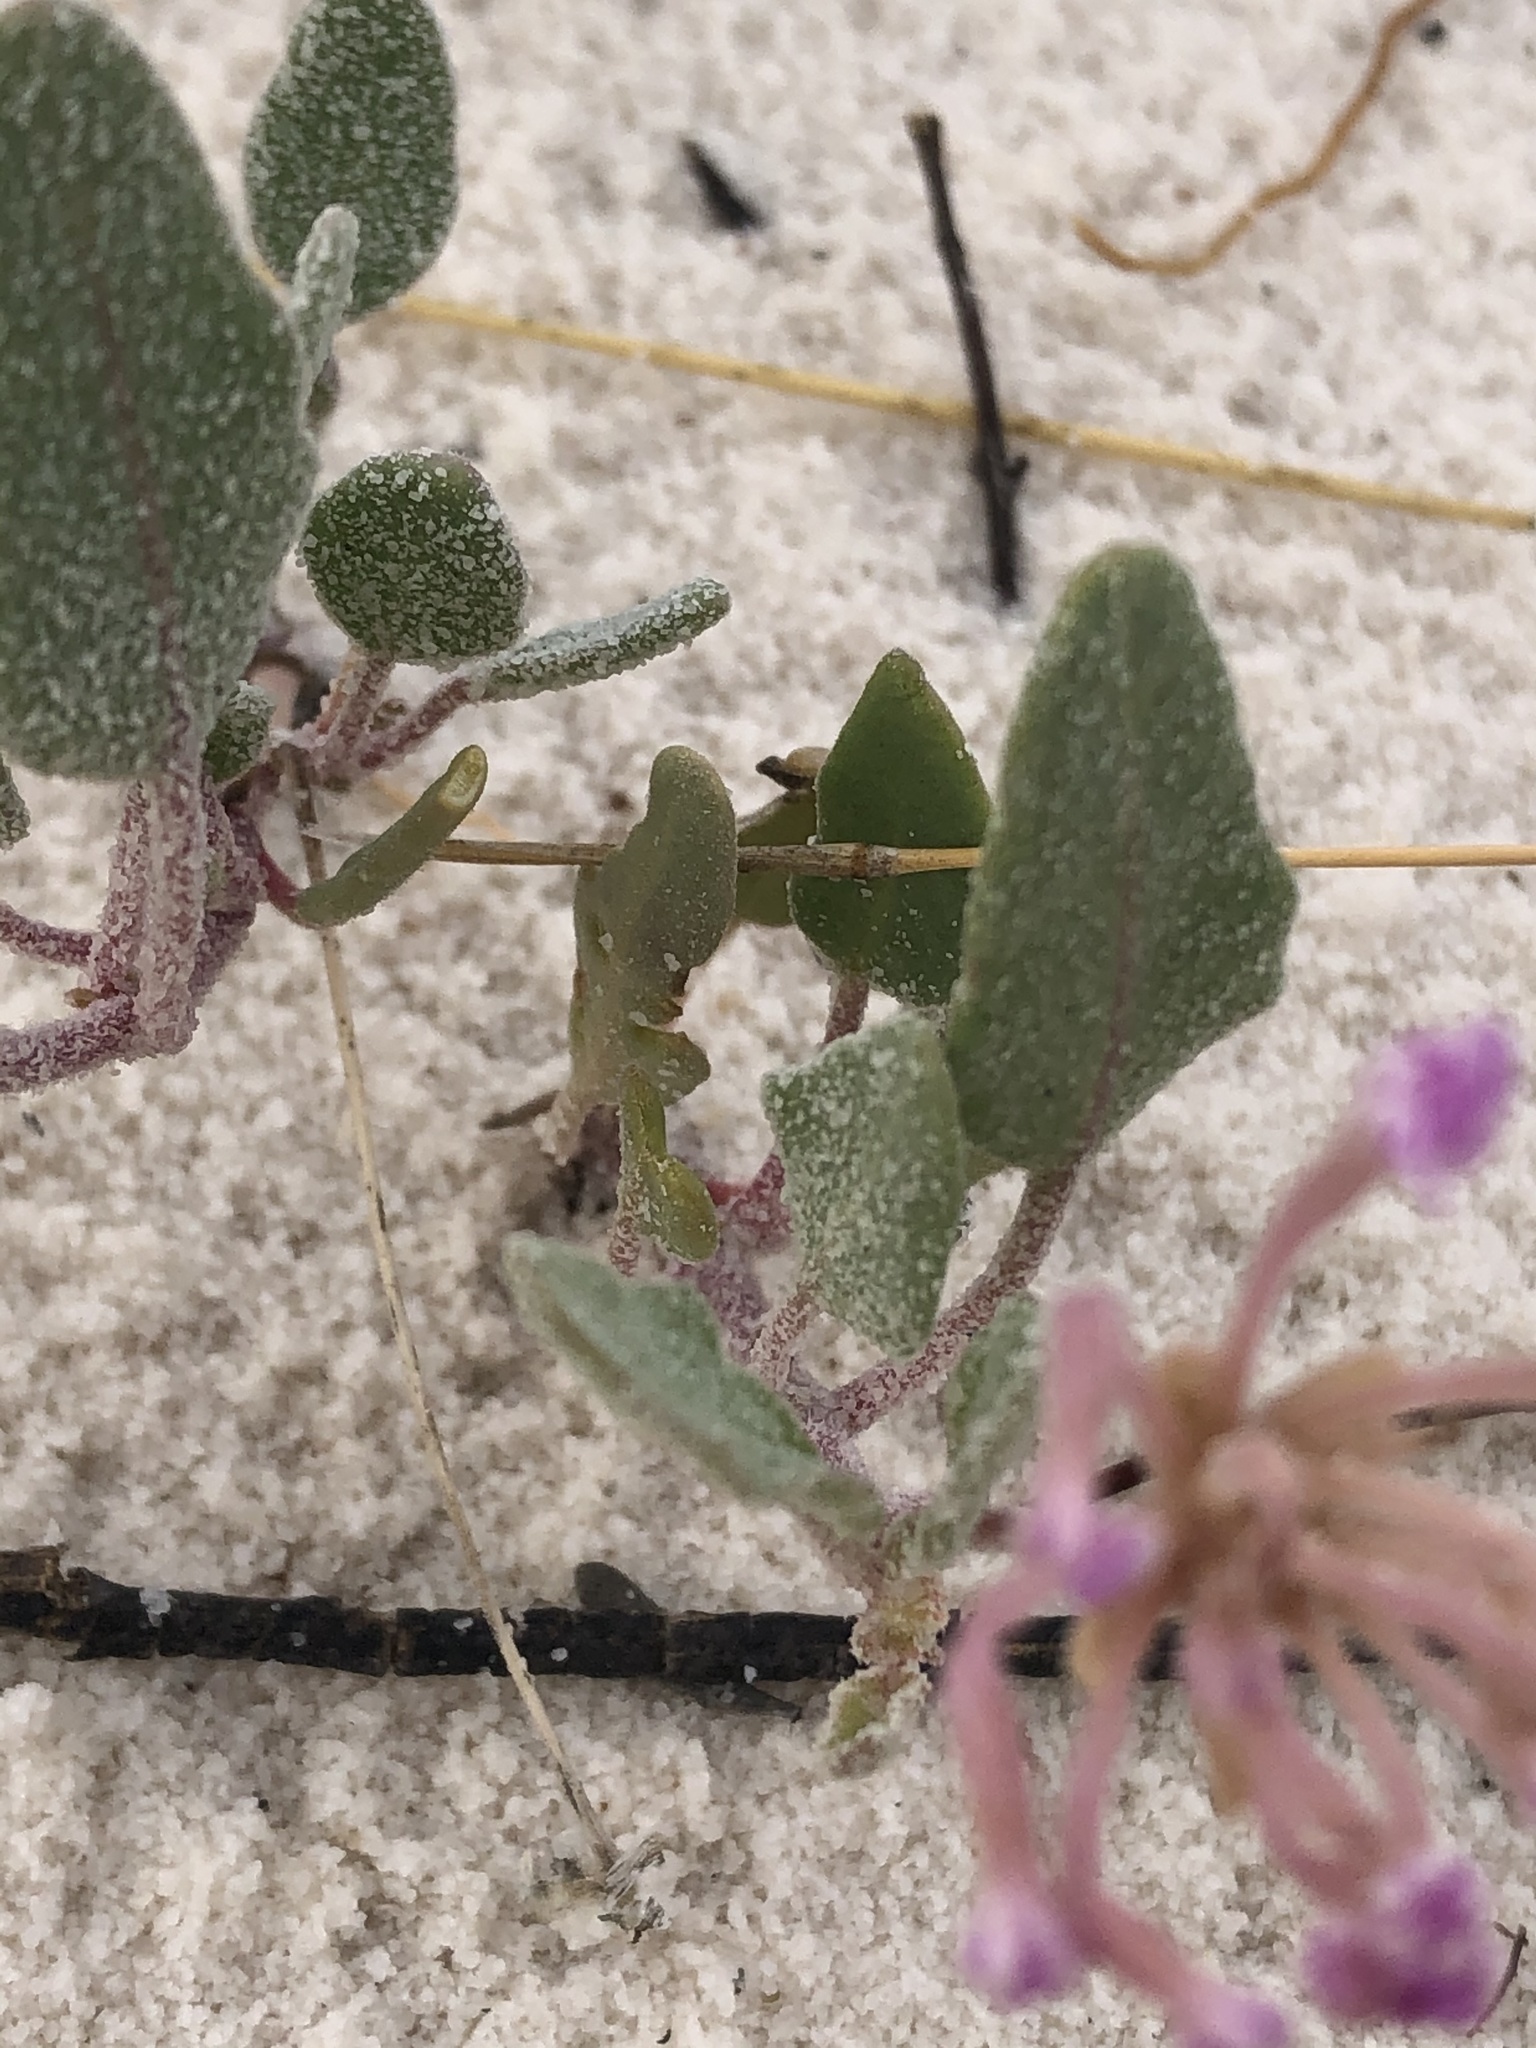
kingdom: Plantae
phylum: Tracheophyta
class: Magnoliopsida
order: Caryophyllales
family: Nyctaginaceae
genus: Abronia
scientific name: Abronia angustifolia
